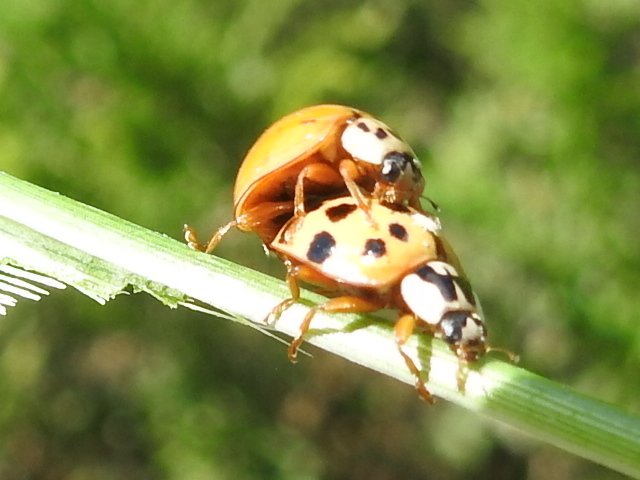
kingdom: Animalia
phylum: Arthropoda
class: Insecta
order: Coleoptera
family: Coccinellidae
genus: Harmonia
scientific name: Harmonia axyridis
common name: Harlequin ladybird
